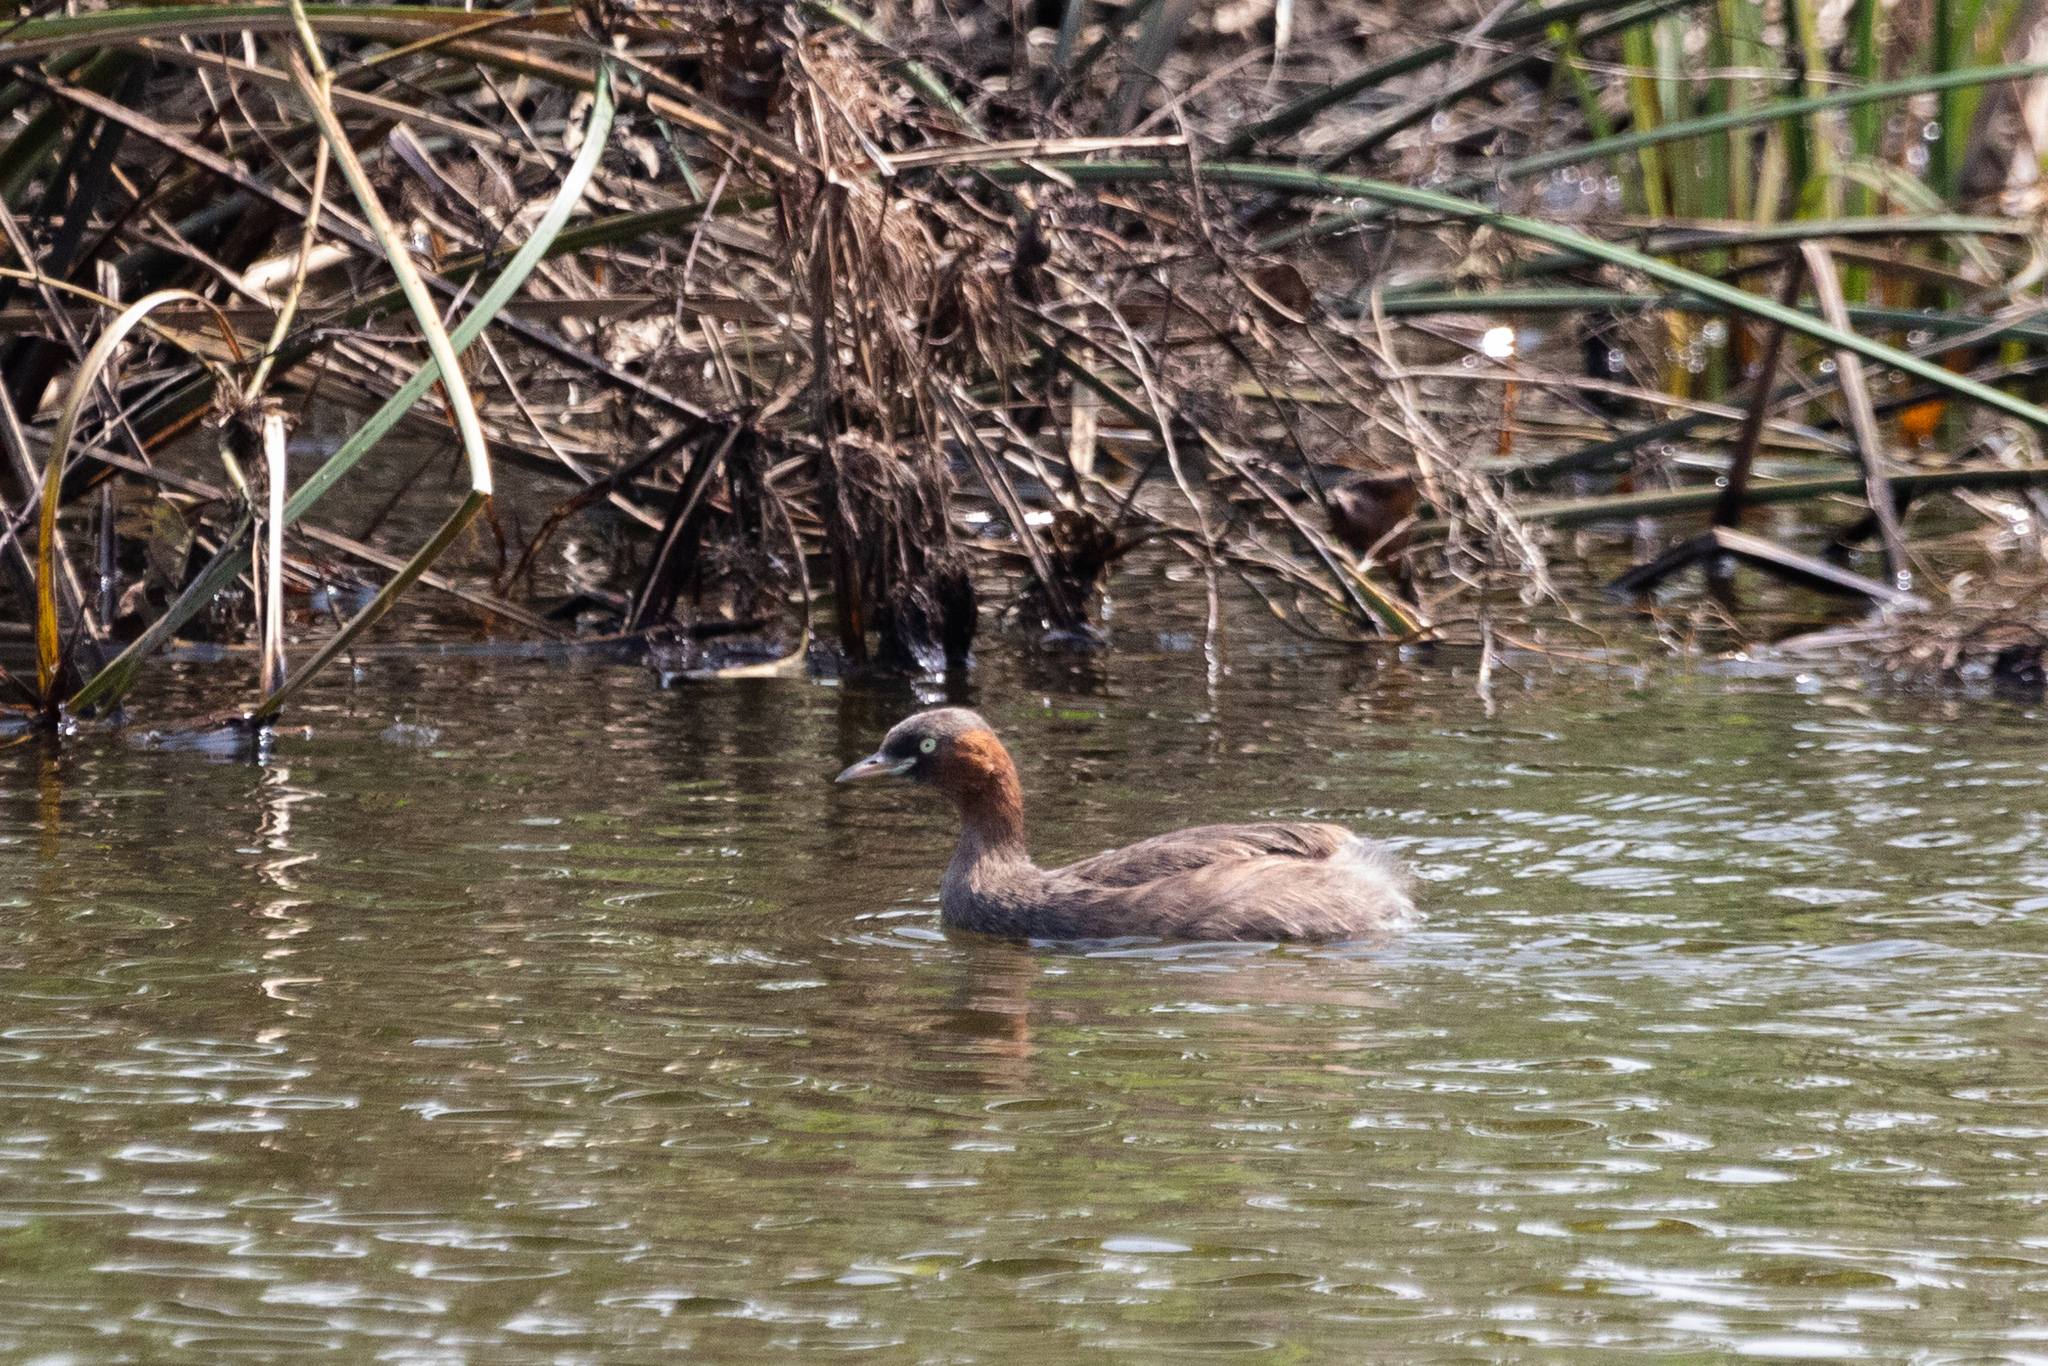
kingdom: Animalia
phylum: Chordata
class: Aves
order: Podicipediformes
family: Podicipedidae
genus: Tachybaptus
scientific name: Tachybaptus ruficollis
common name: Little grebe
